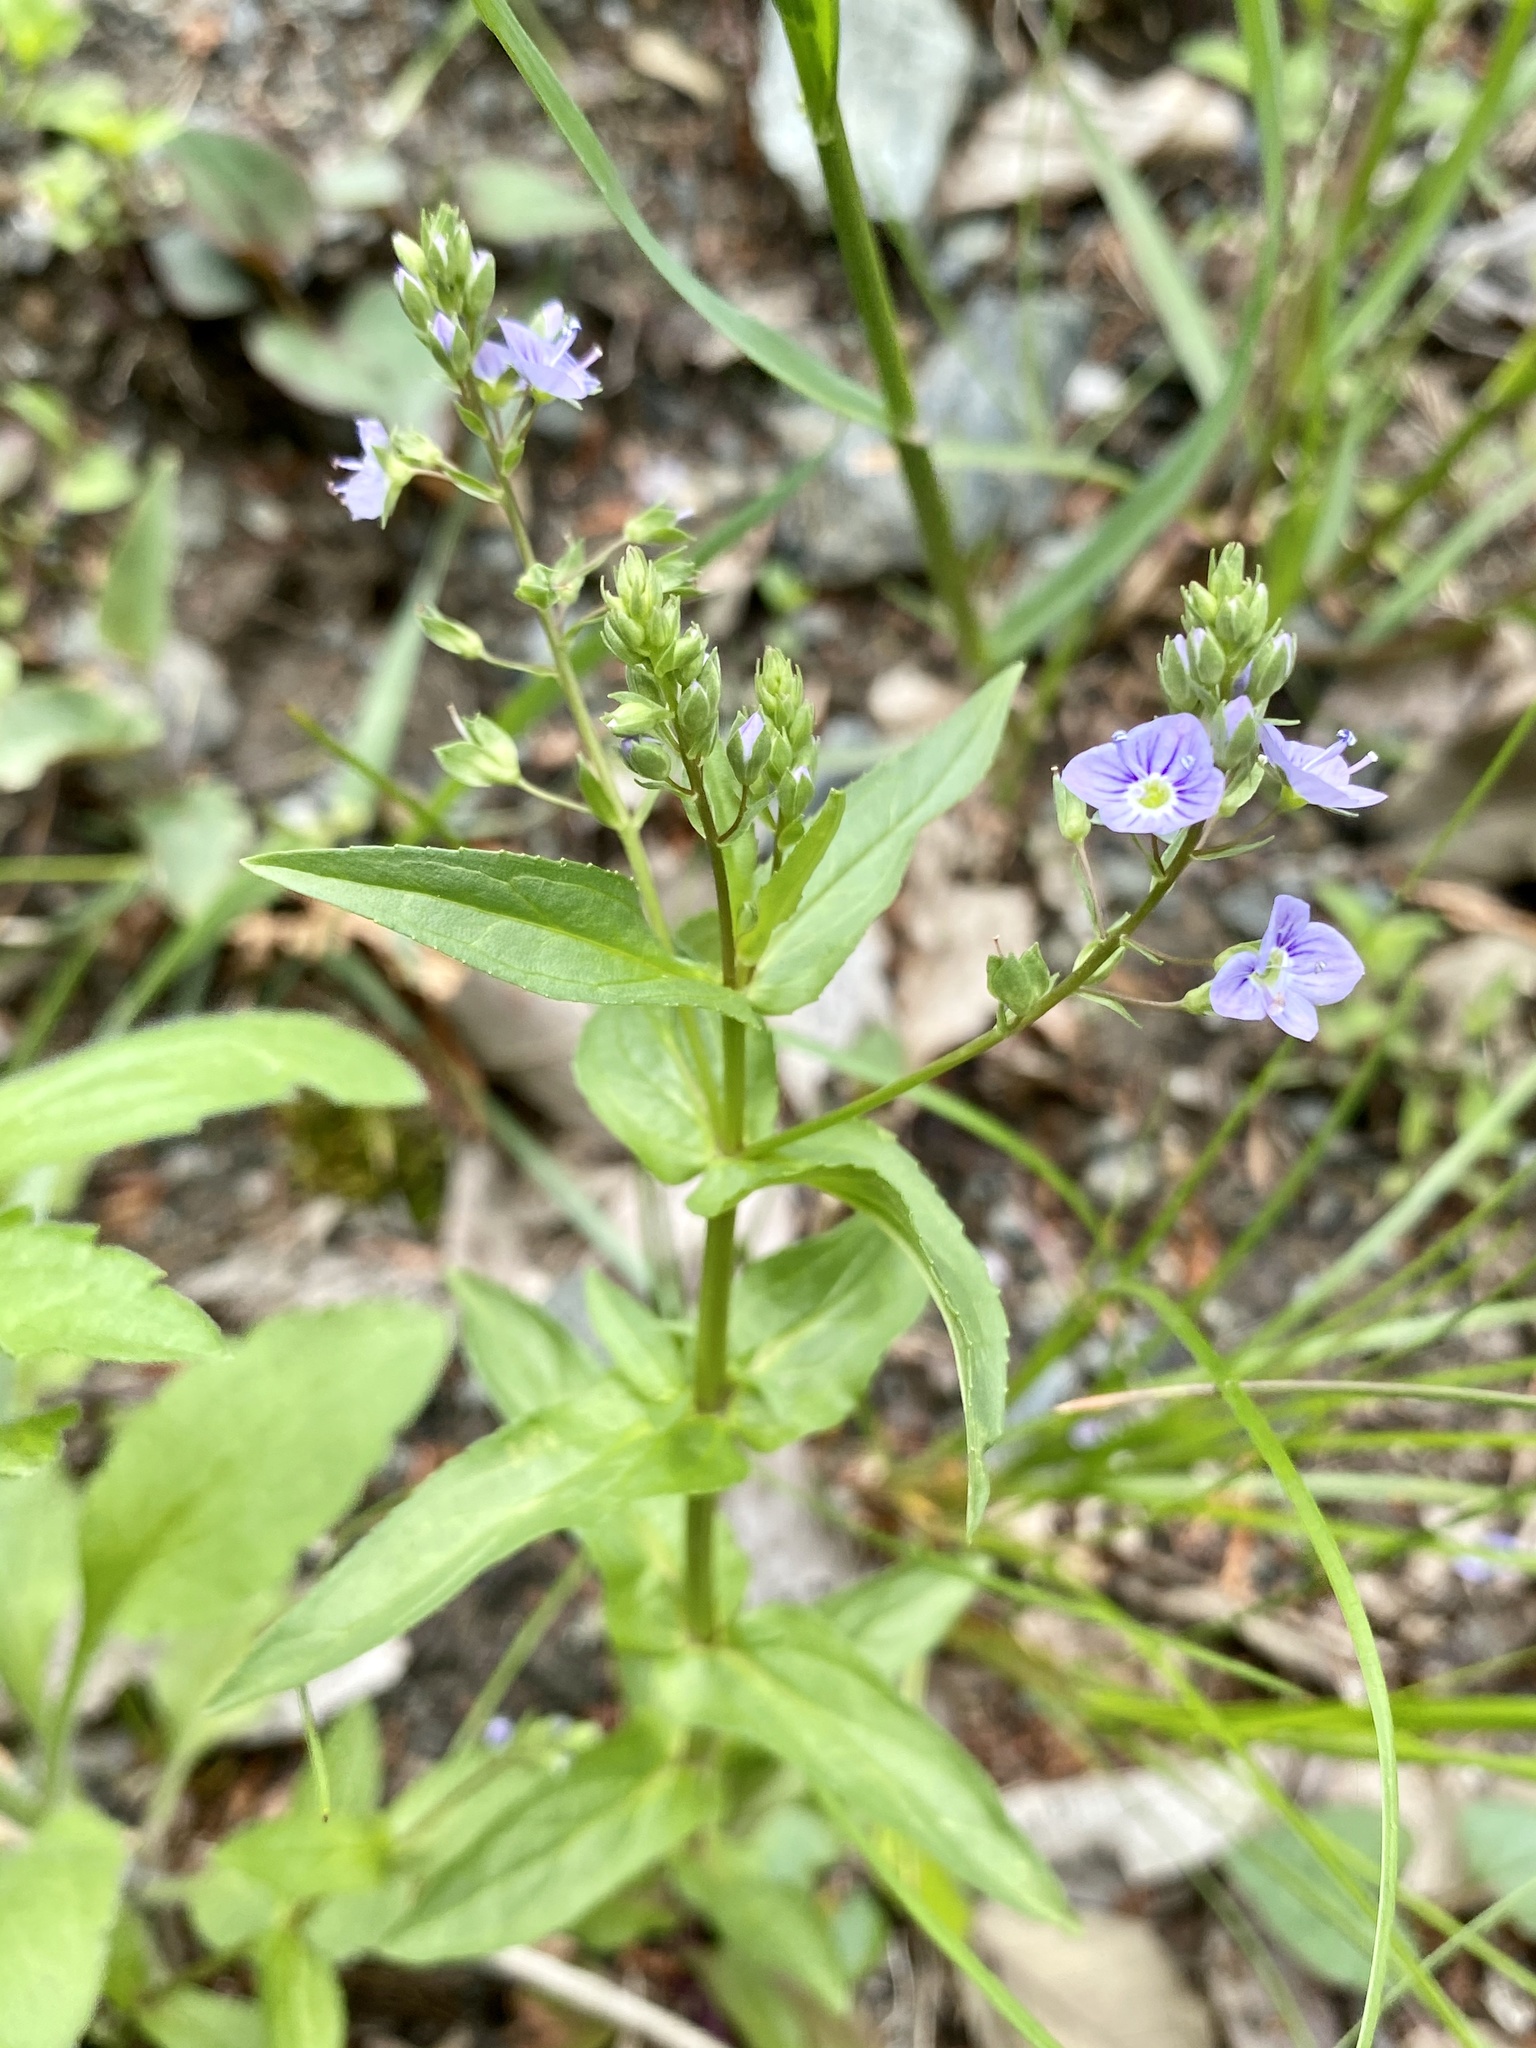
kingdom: Plantae
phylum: Tracheophyta
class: Magnoliopsida
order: Lamiales
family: Plantaginaceae
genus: Veronica
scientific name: Veronica anagallis-aquatica
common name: Water speedwell
